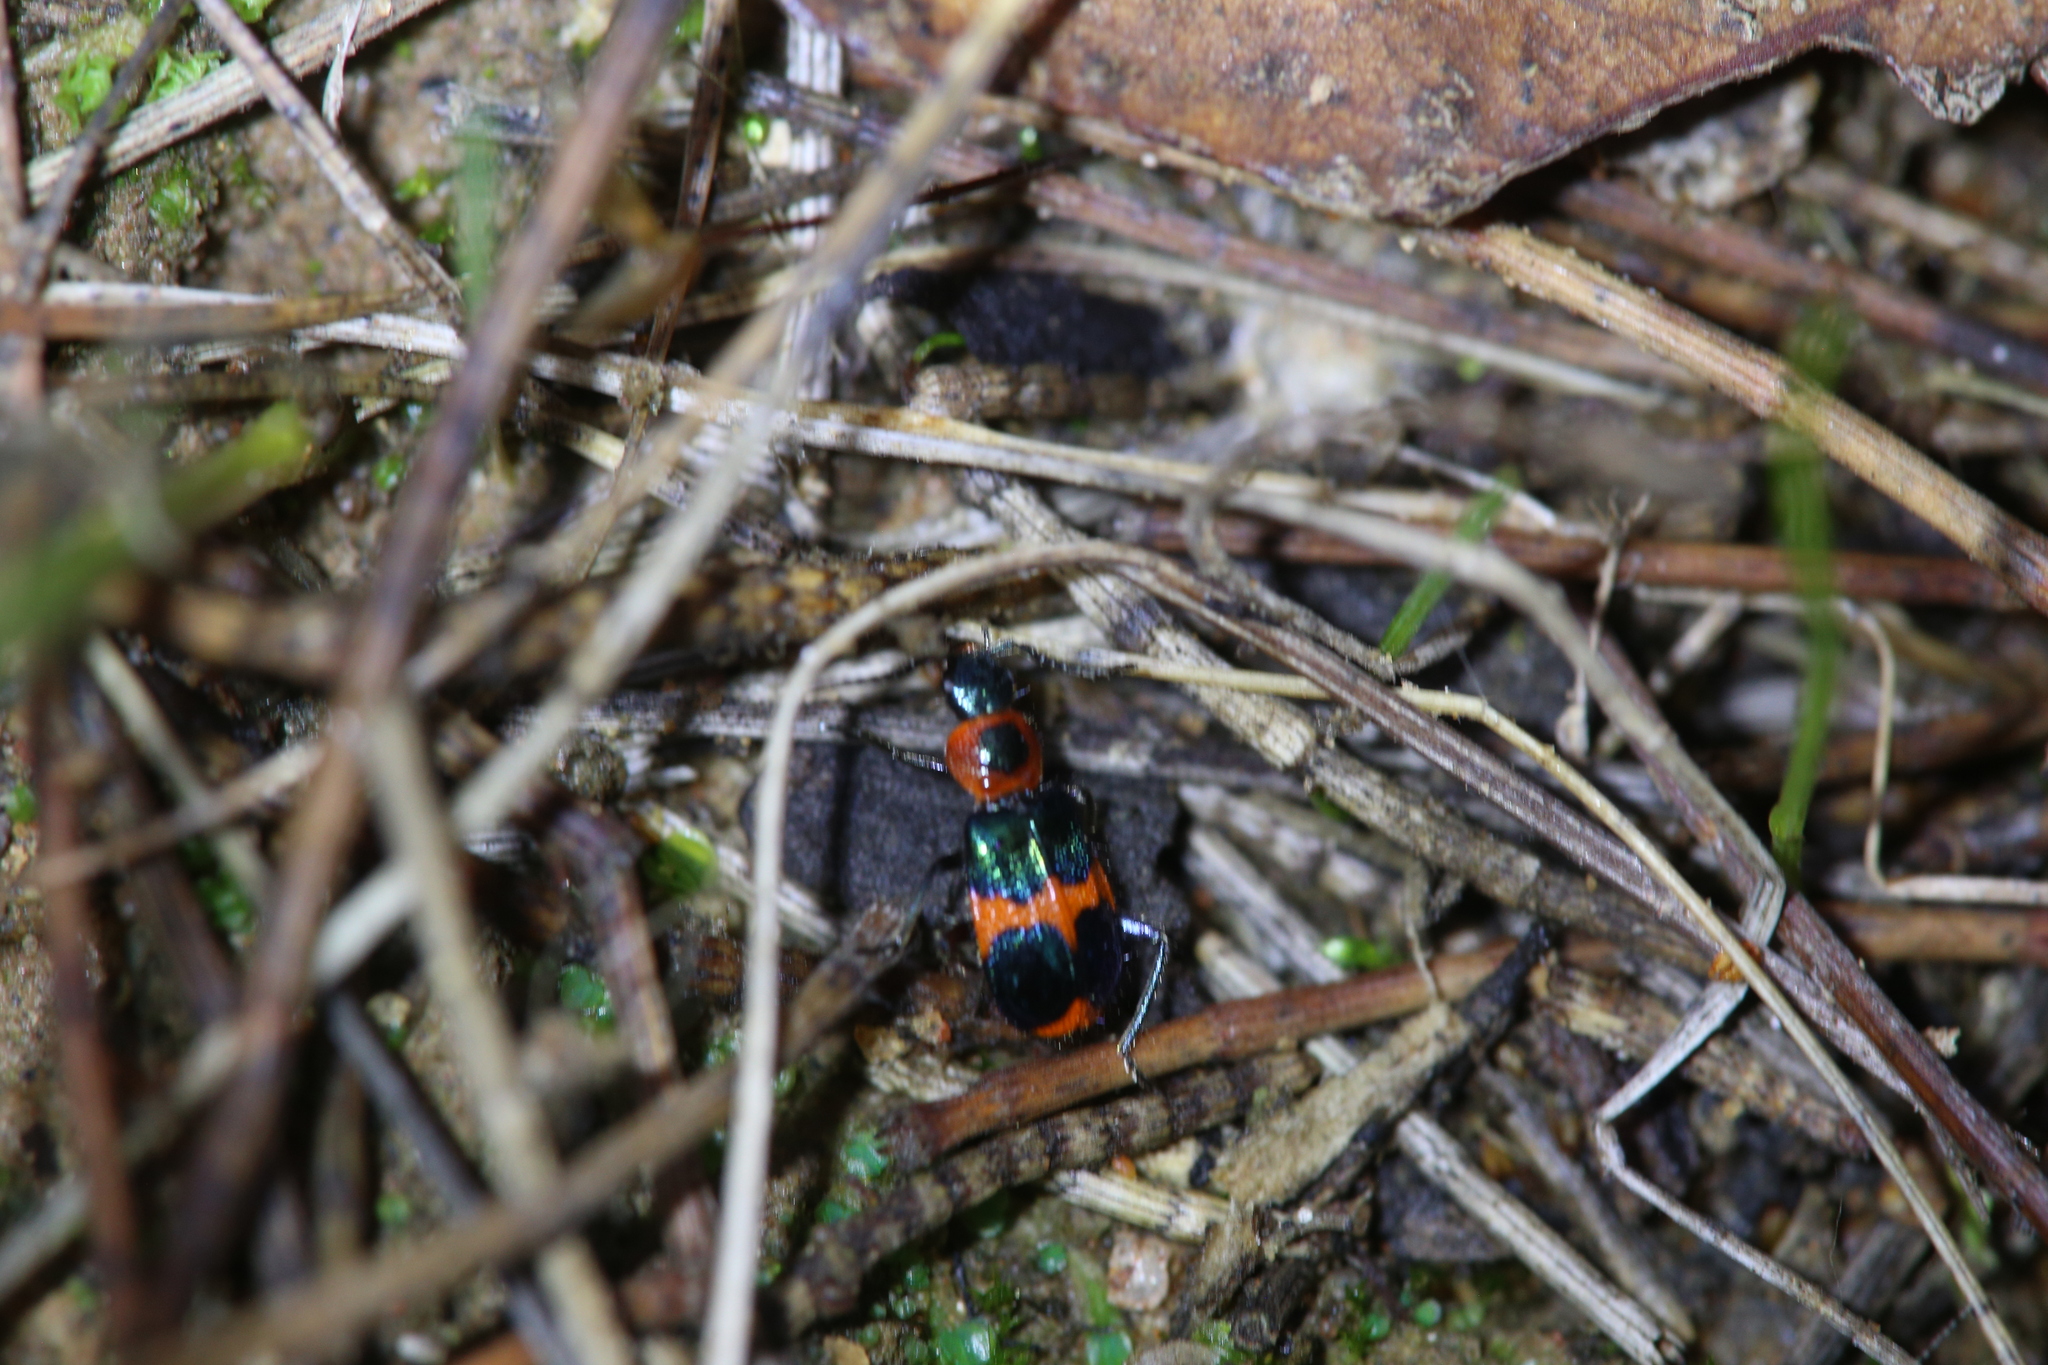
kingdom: Animalia
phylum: Arthropoda
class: Insecta
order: Coleoptera
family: Melyridae
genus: Dicranolaius
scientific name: Dicranolaius bellulus
